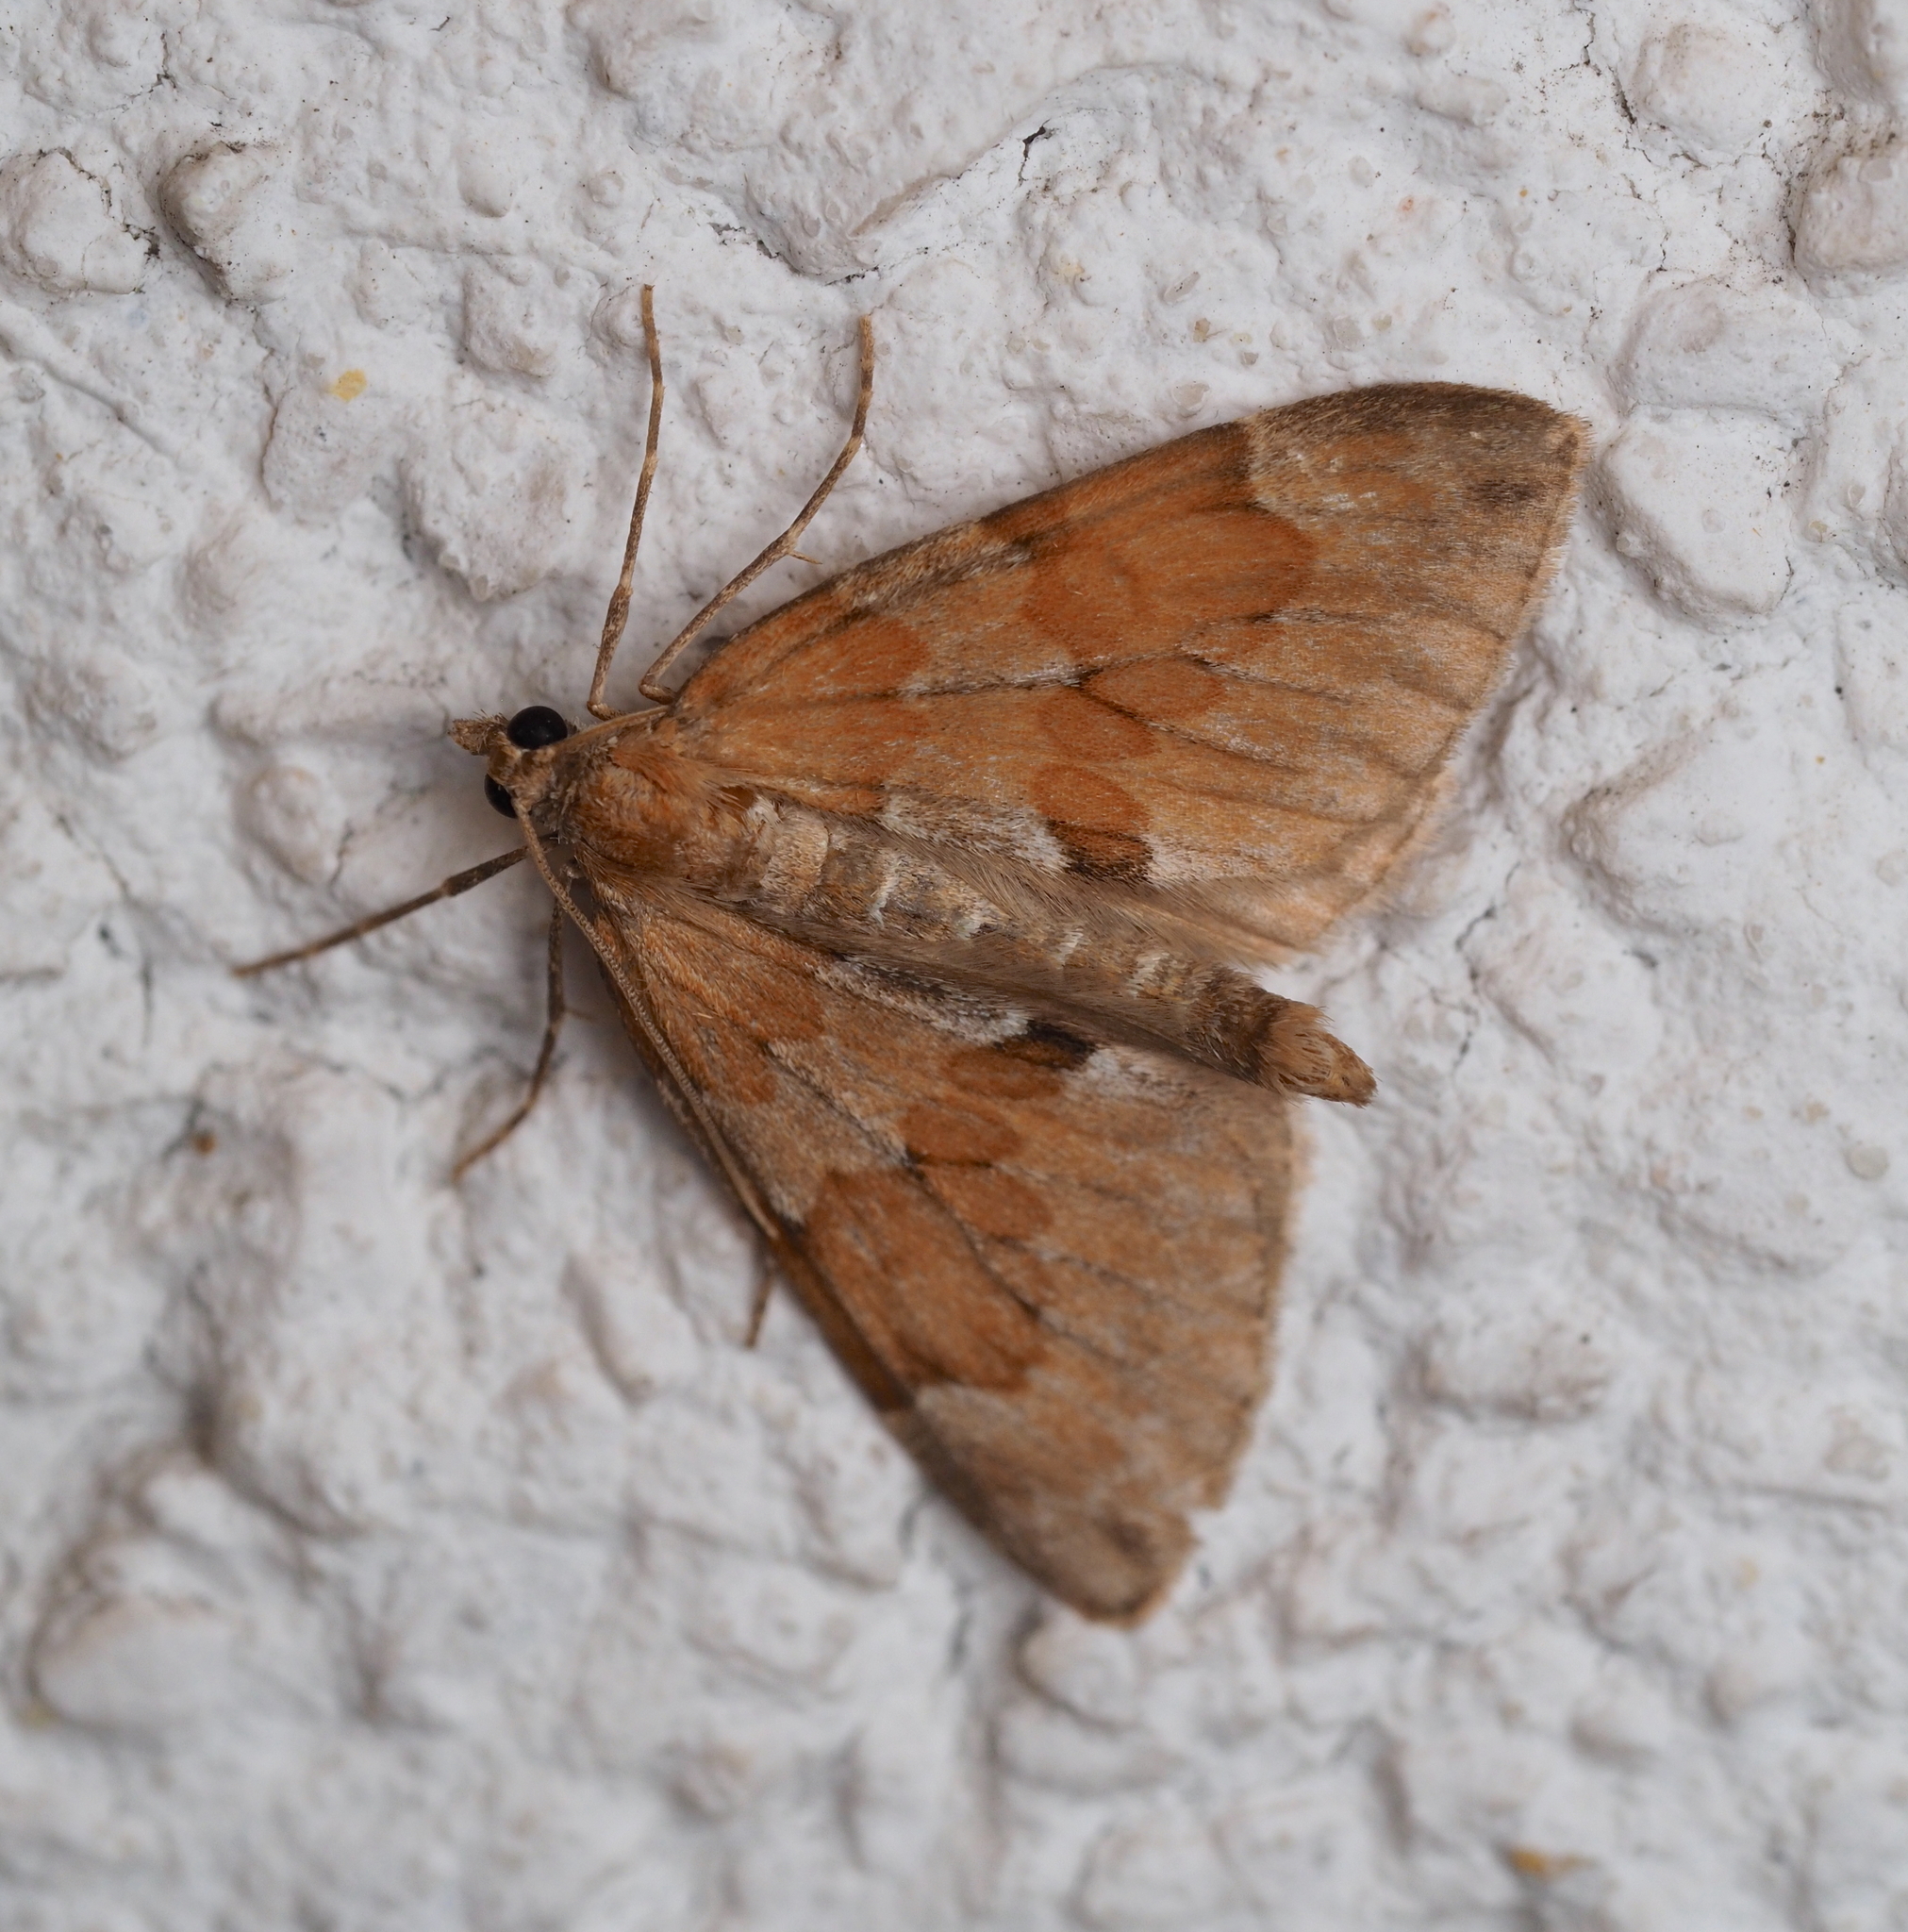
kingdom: Animalia
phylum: Arthropoda
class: Insecta
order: Lepidoptera
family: Geometridae
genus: Thera
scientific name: Thera obeliscata
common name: Grey pine carpet
